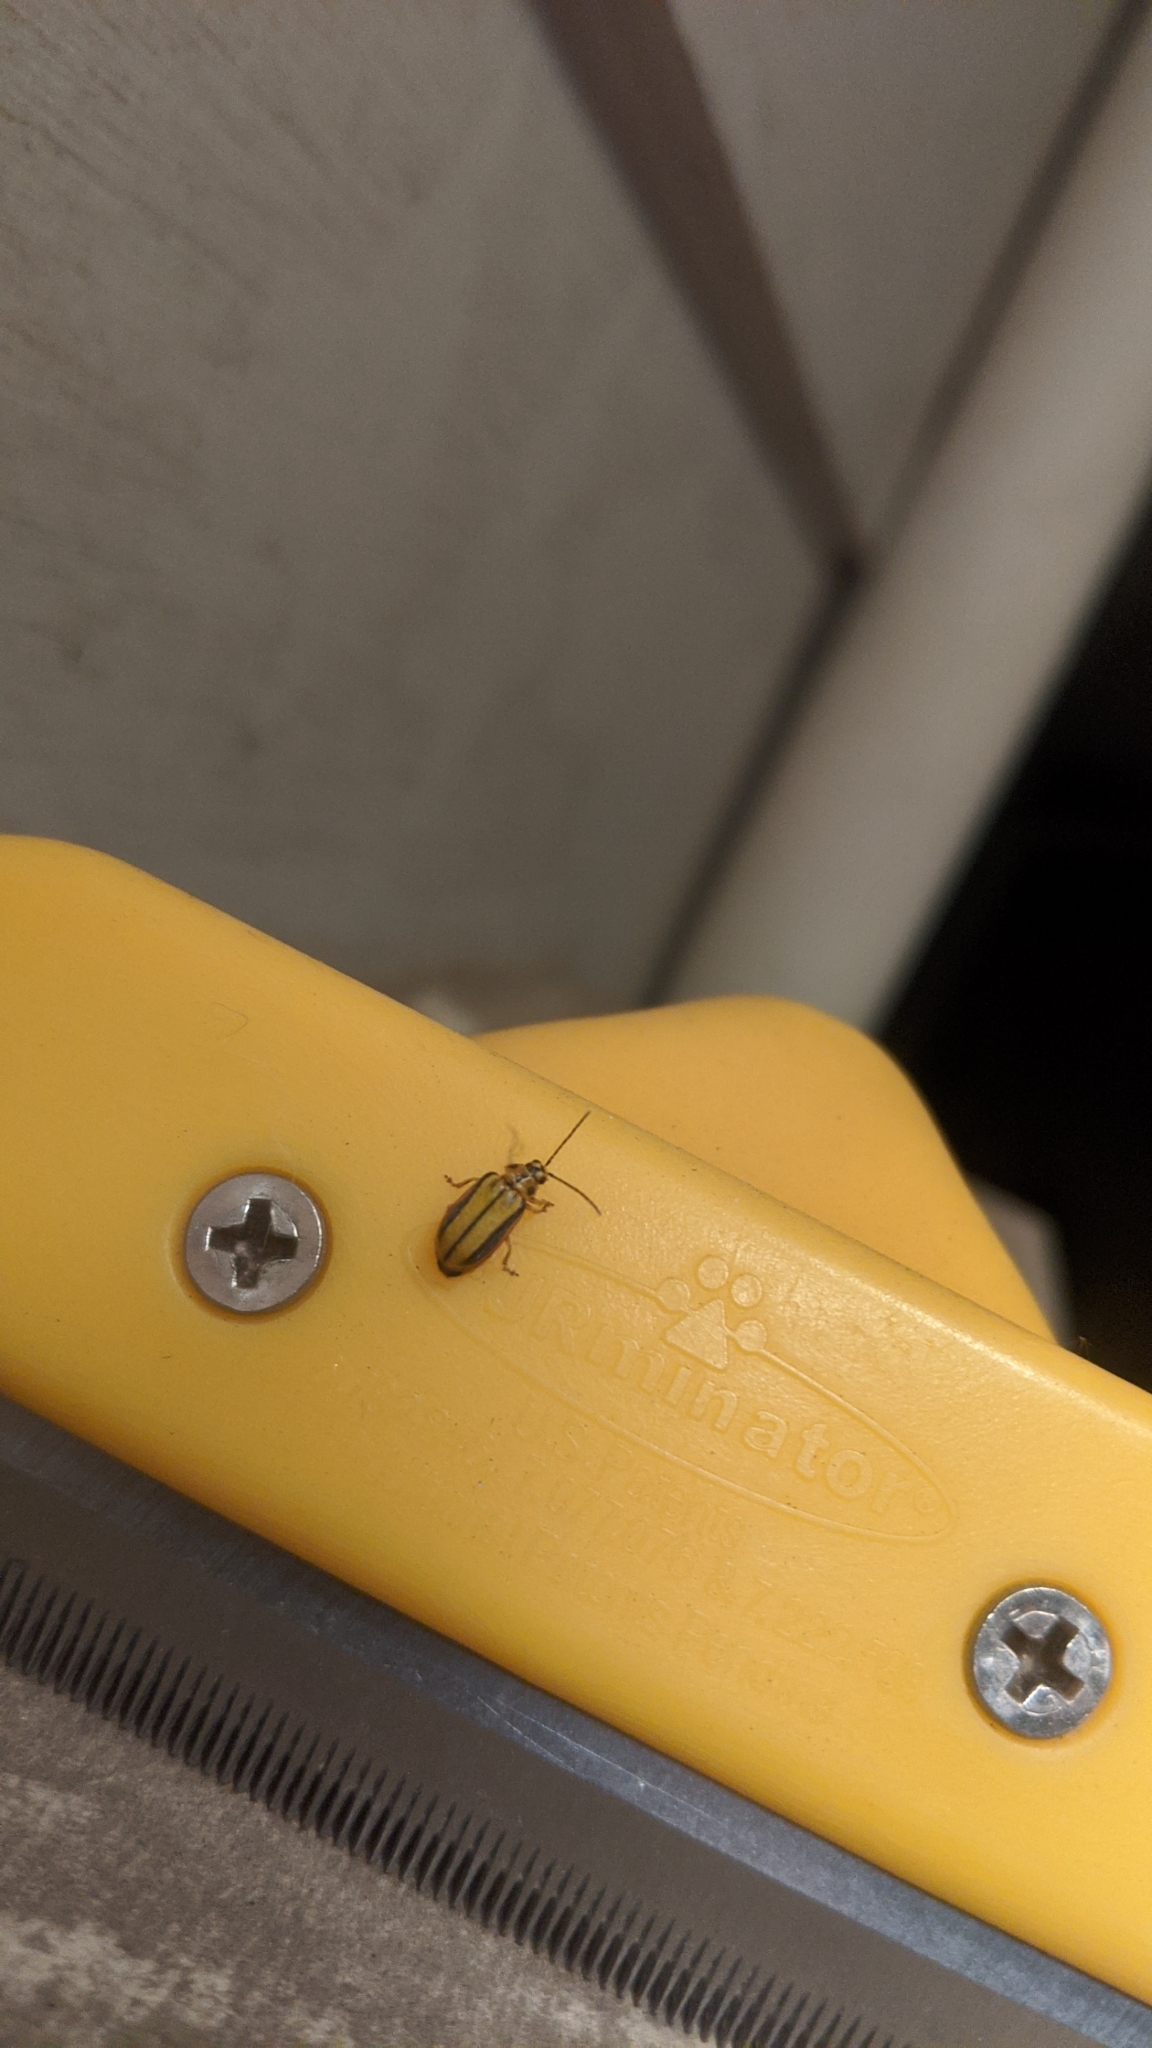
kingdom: Animalia
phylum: Arthropoda
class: Insecta
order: Coleoptera
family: Chrysomelidae
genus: Xanthogaleruca
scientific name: Xanthogaleruca luteola
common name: Elm leaf beetle
